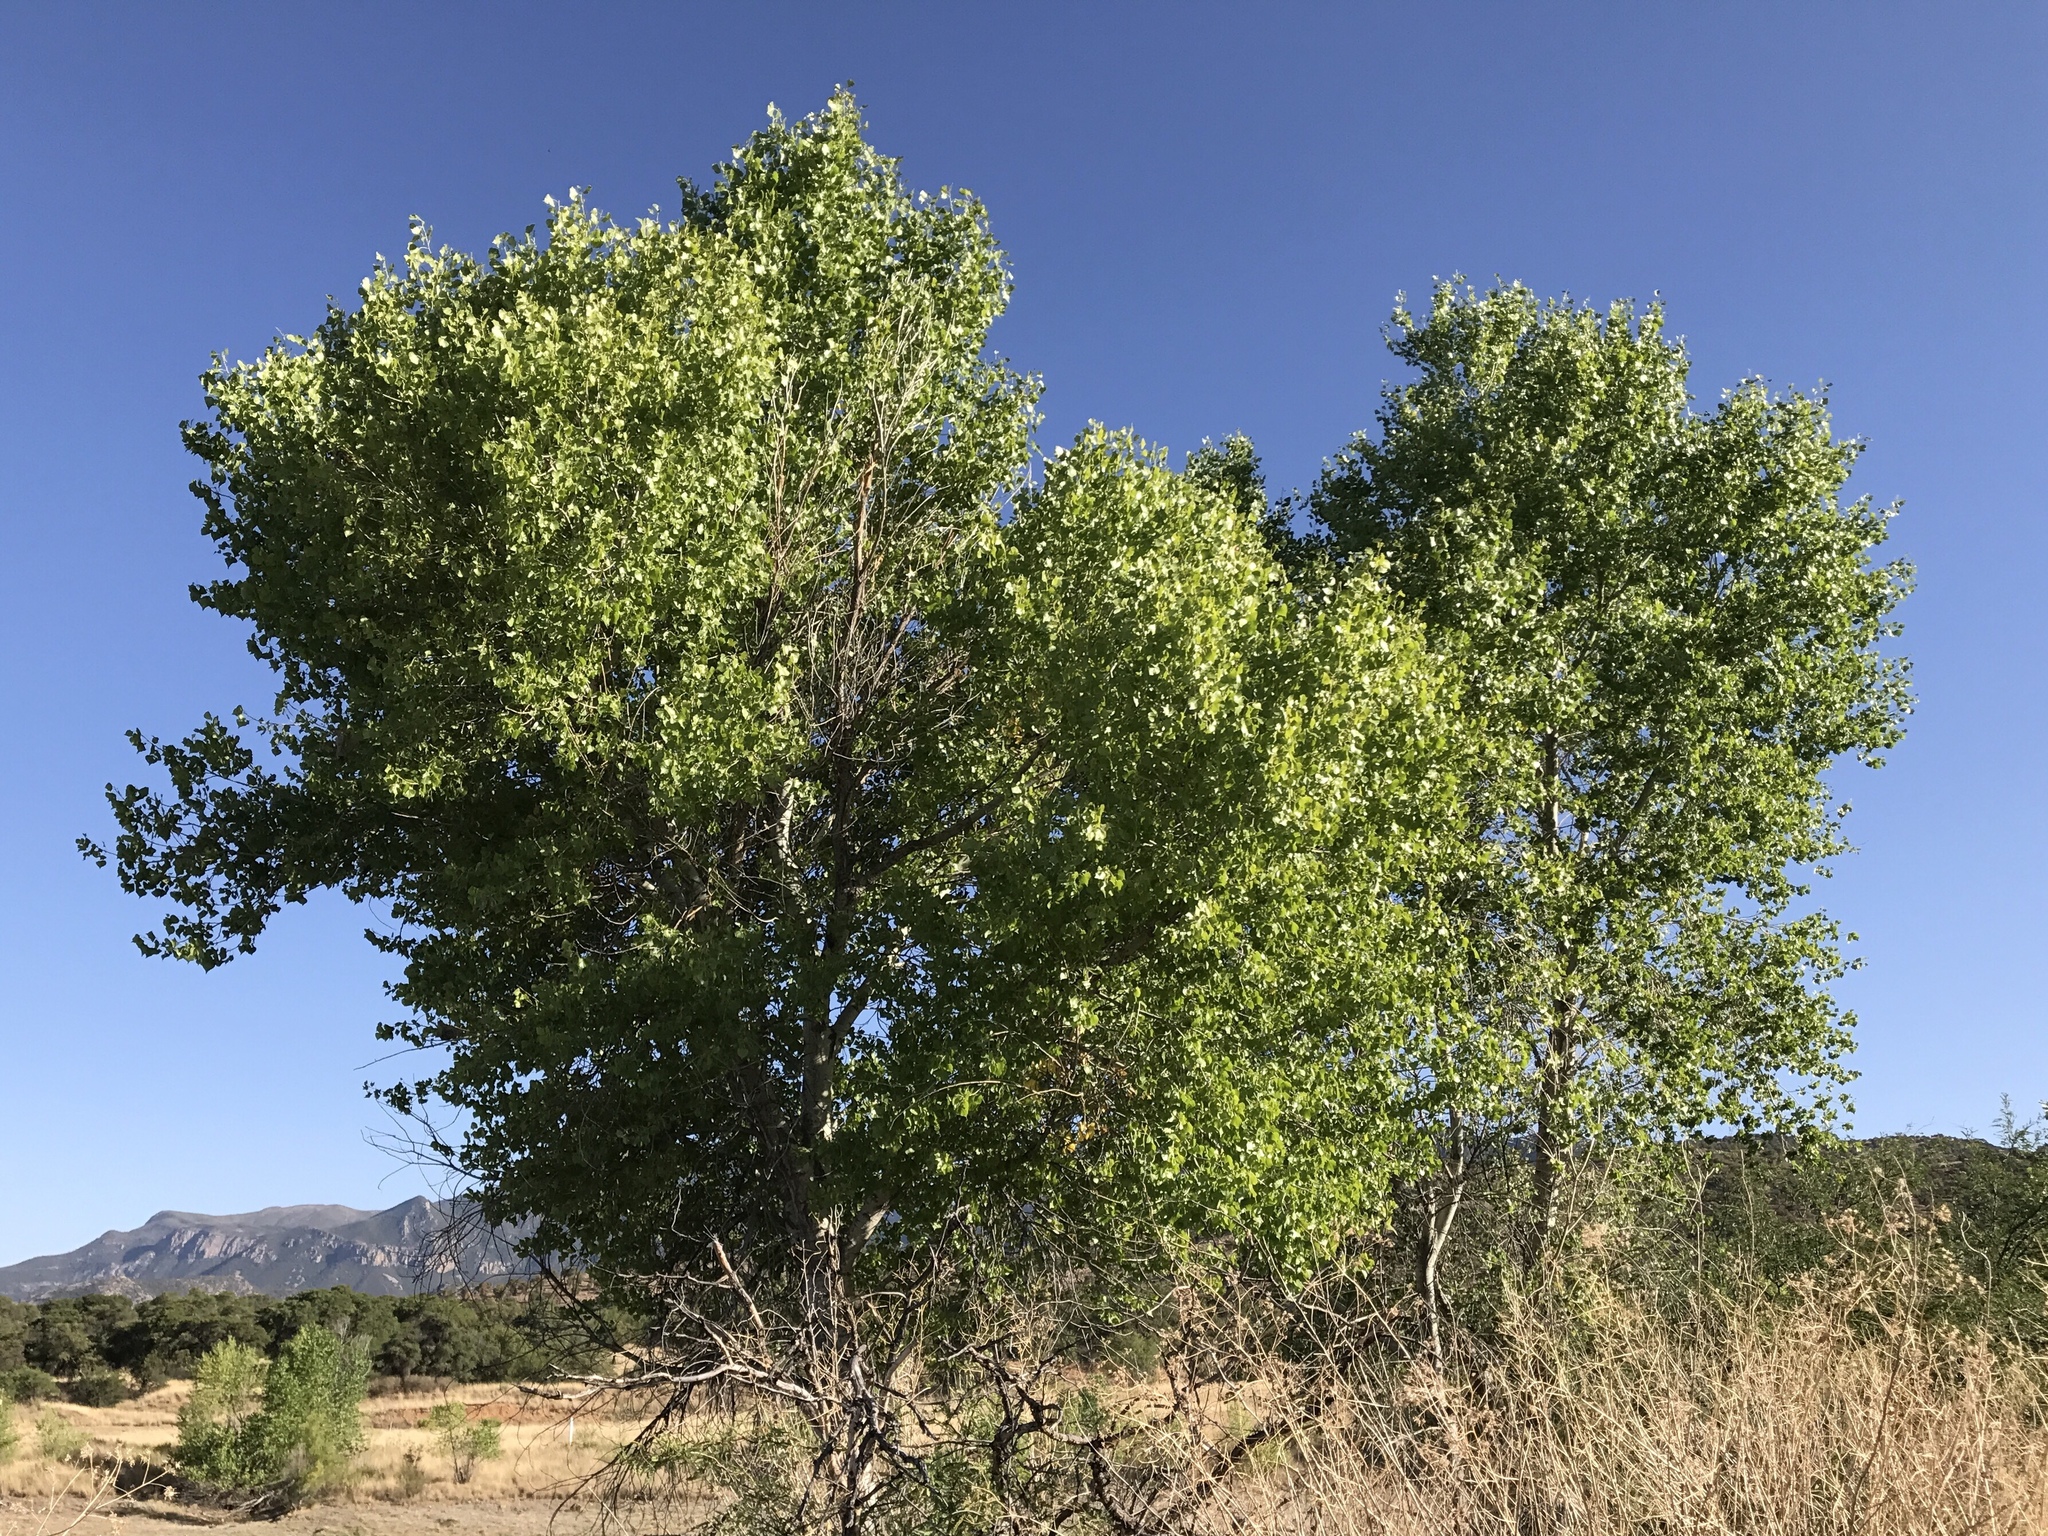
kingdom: Plantae
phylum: Tracheophyta
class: Magnoliopsida
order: Malpighiales
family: Salicaceae
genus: Populus
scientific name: Populus fremontii
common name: Fremont's cottonwood
